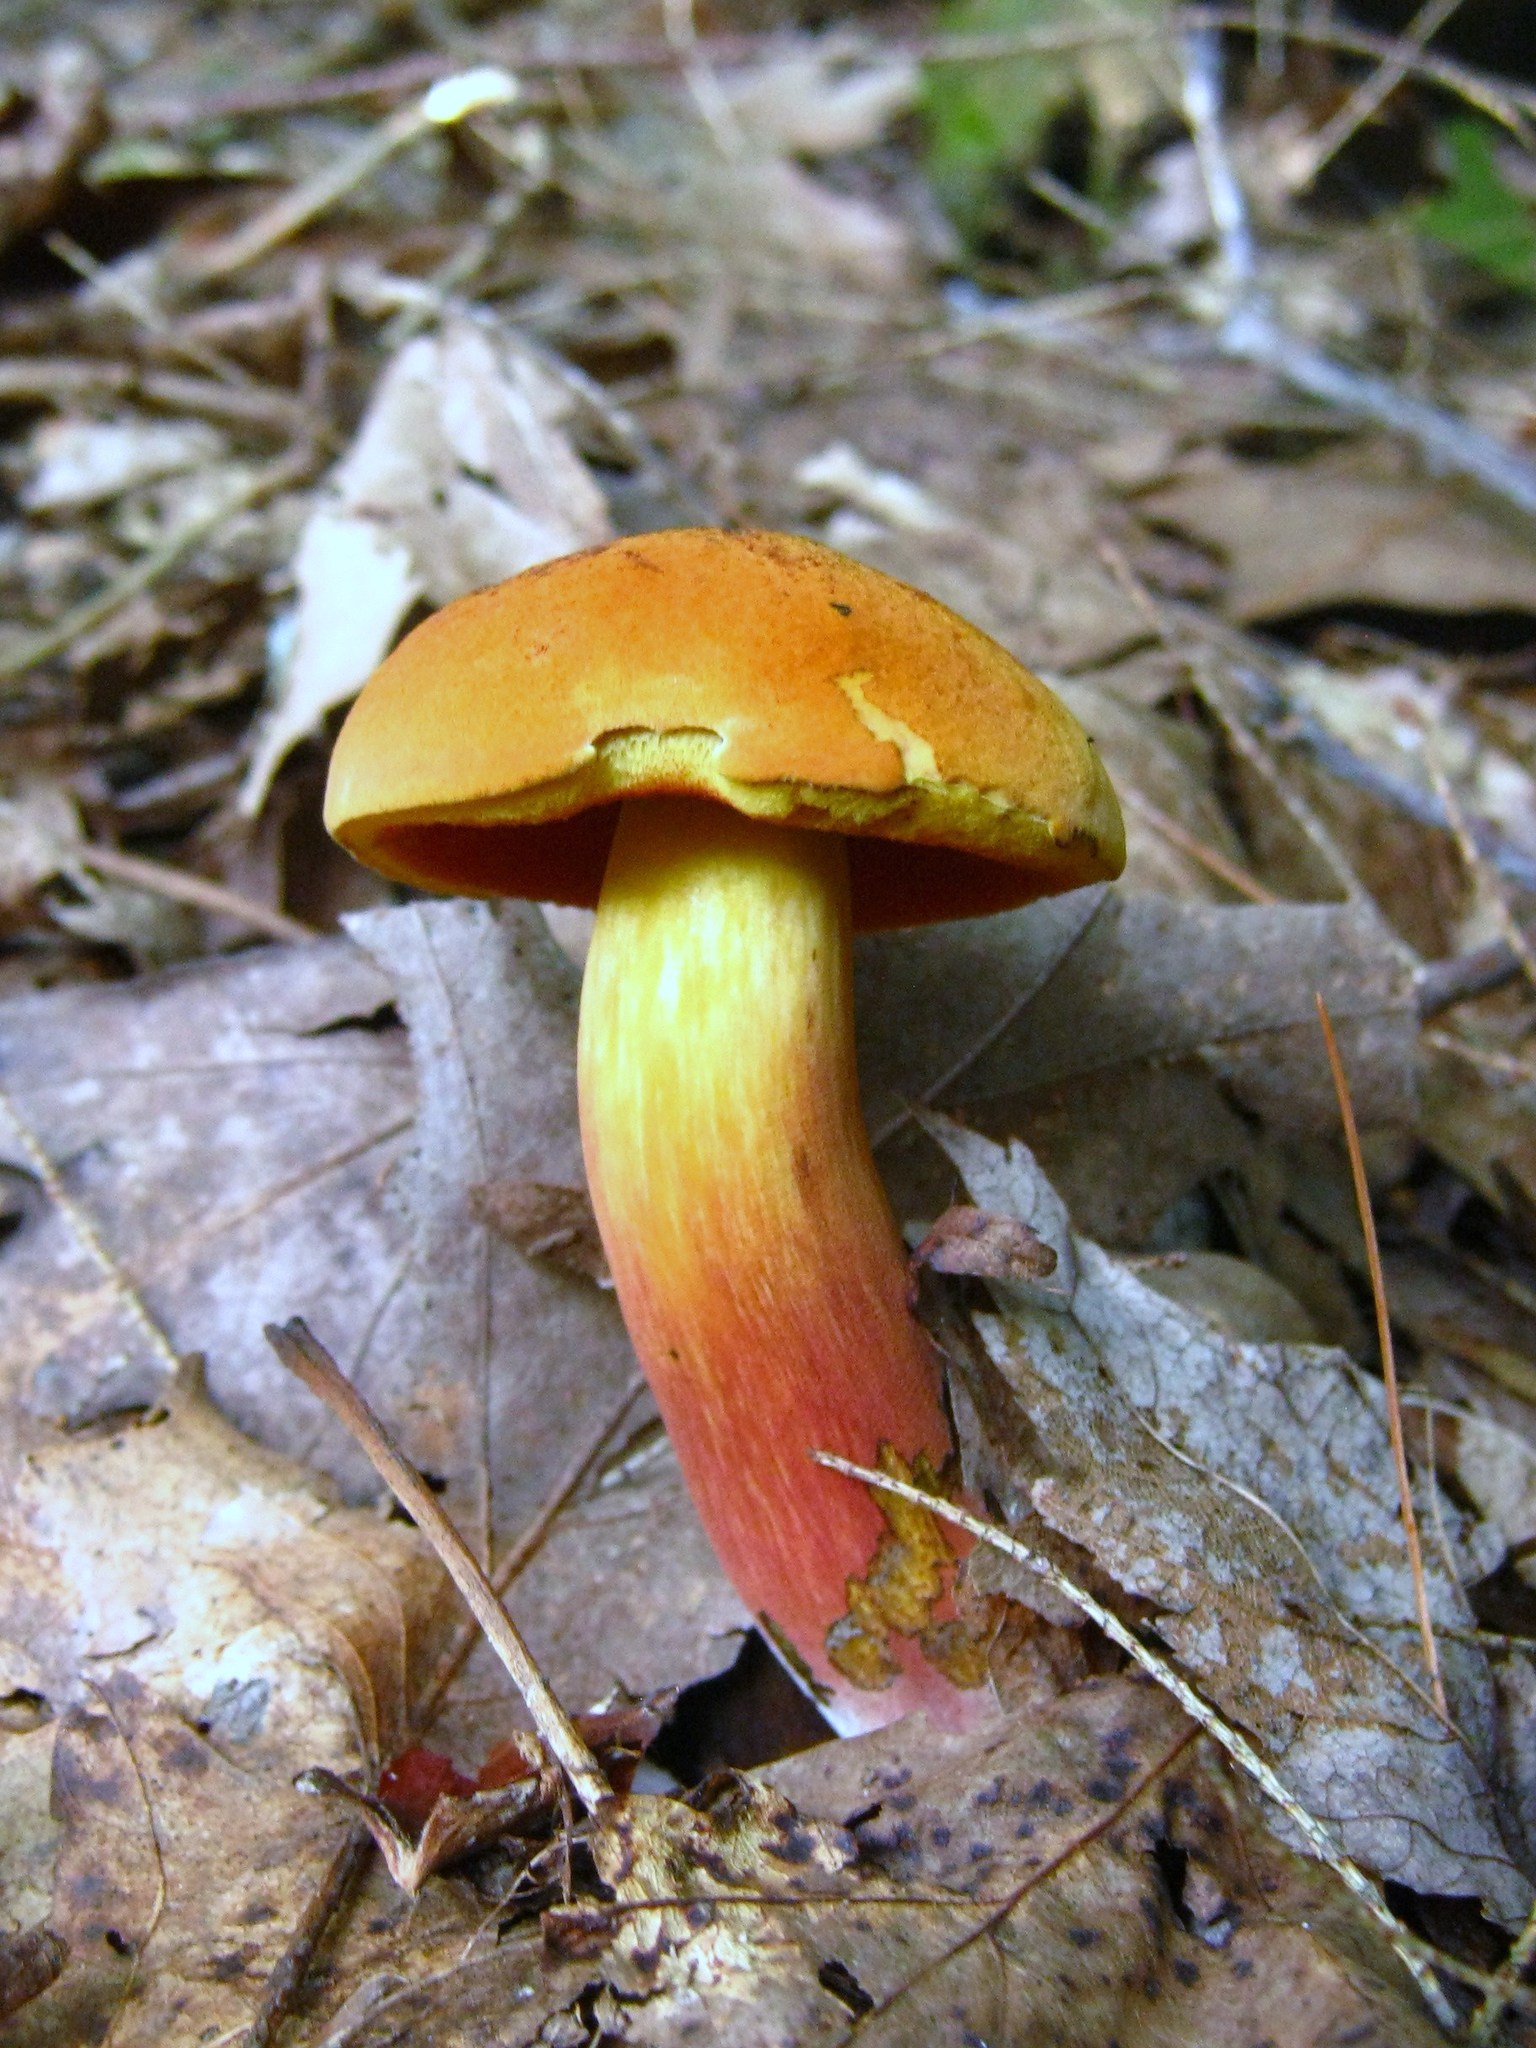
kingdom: Fungi
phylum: Basidiomycota
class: Agaricomycetes
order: Boletales
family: Boletaceae
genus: Boletus
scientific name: Boletus subvelutipes
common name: Red-mouth bolete
